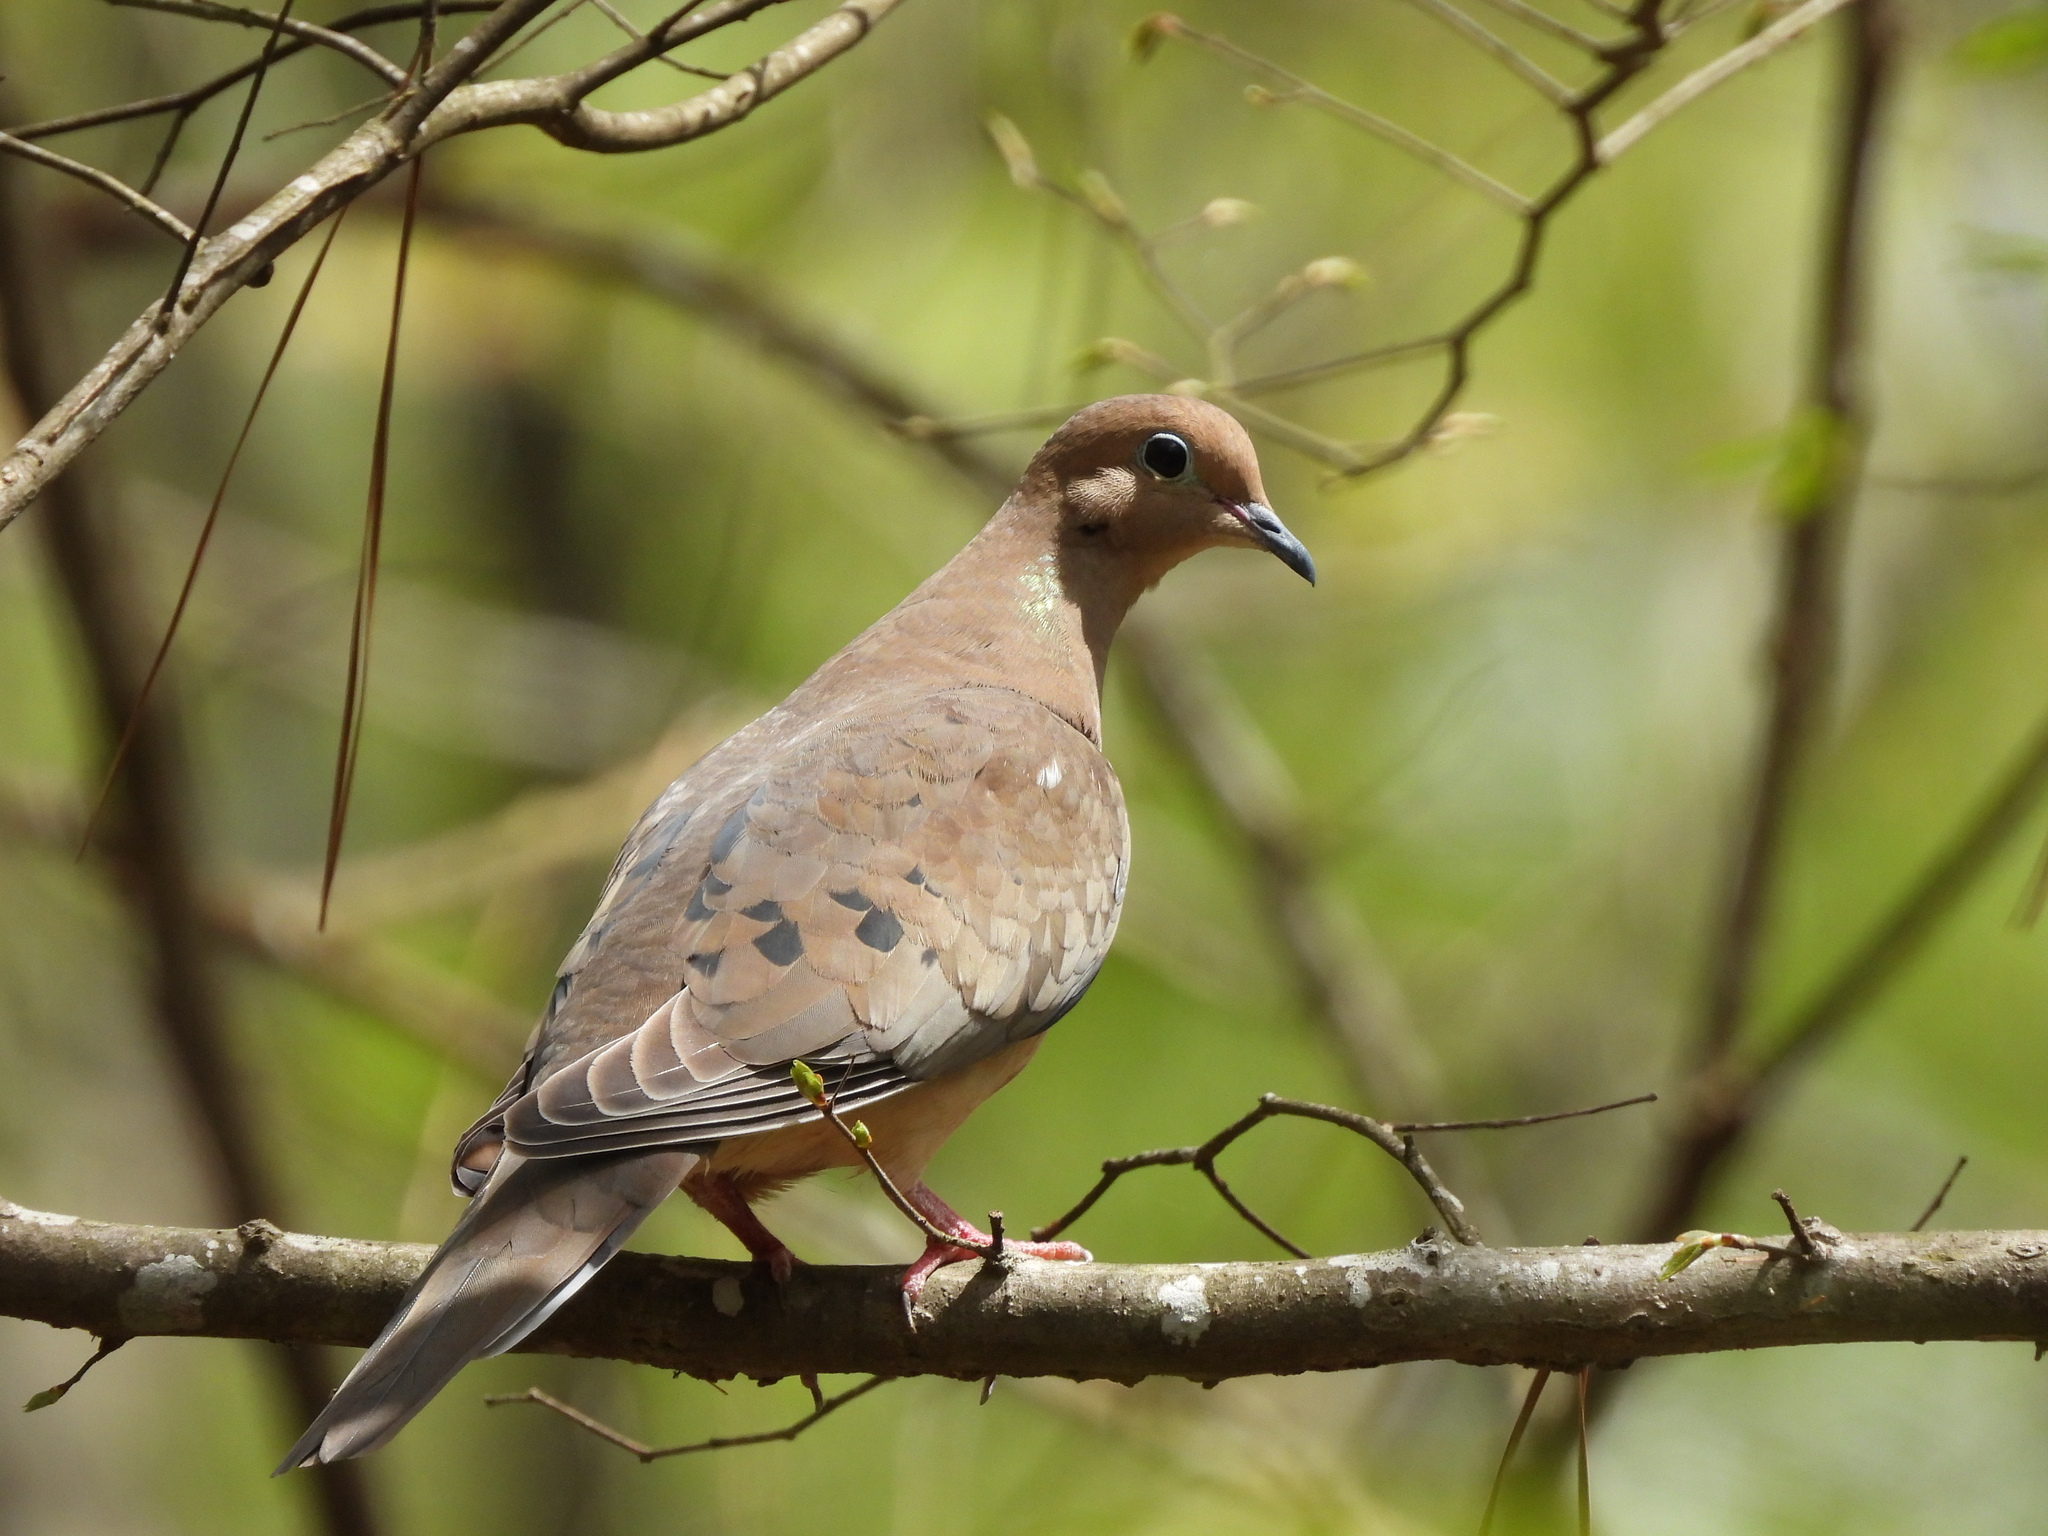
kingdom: Animalia
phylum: Chordata
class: Aves
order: Columbiformes
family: Columbidae
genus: Zenaida
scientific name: Zenaida macroura
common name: Mourning dove
